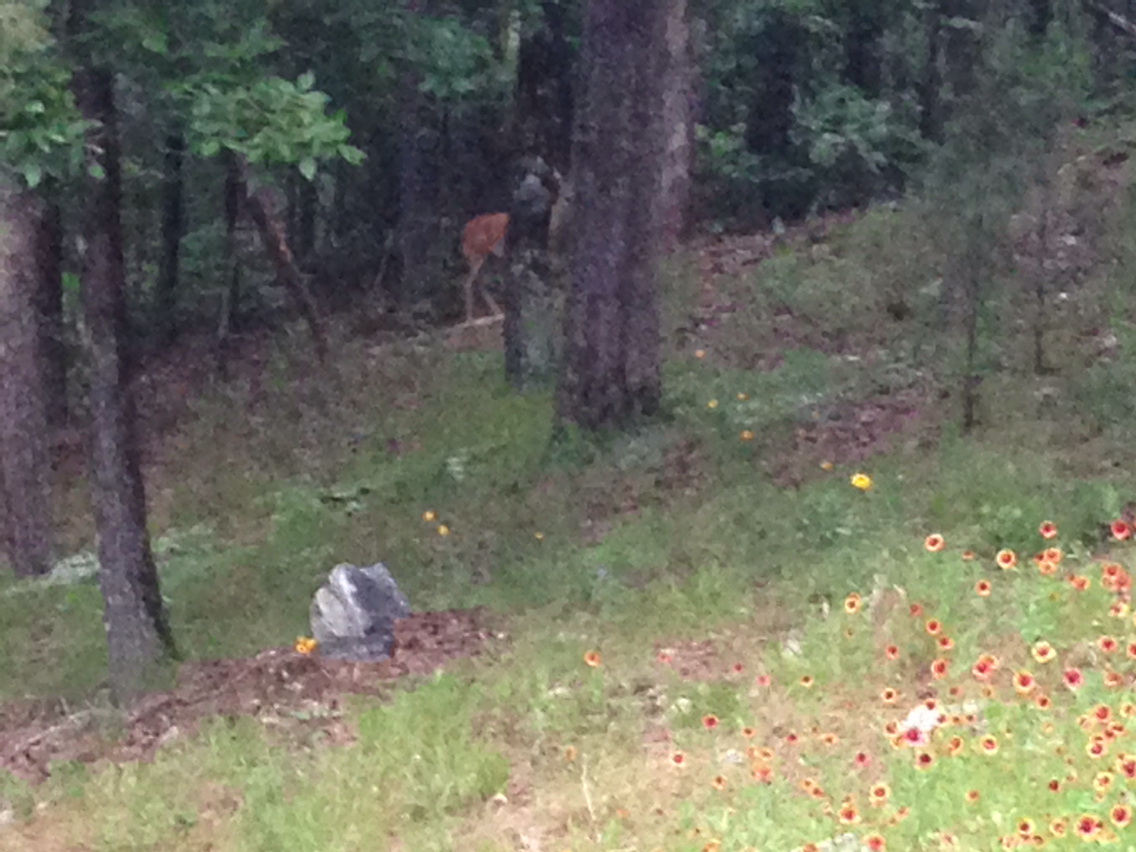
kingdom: Animalia
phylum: Chordata
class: Mammalia
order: Artiodactyla
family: Cervidae
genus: Odocoileus
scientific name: Odocoileus virginianus
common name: White-tailed deer
